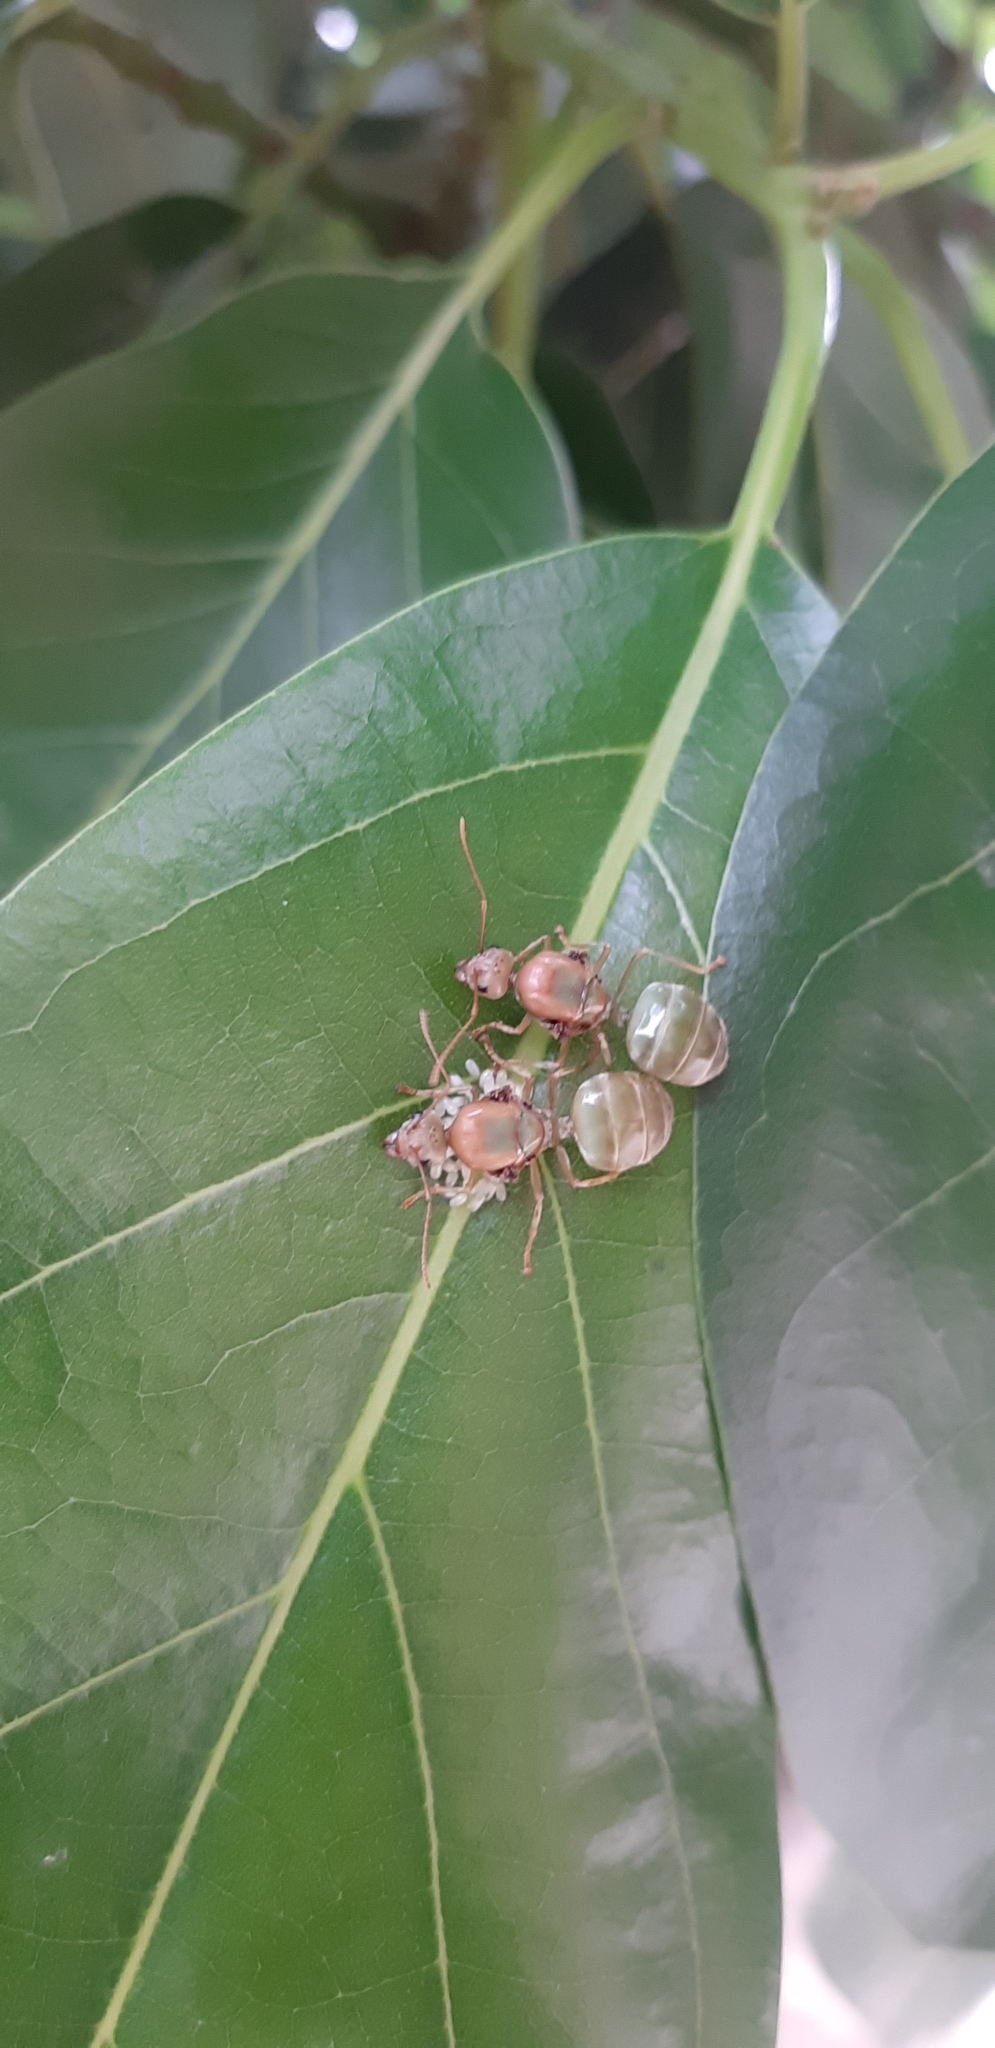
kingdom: Animalia
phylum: Arthropoda
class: Insecta
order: Hymenoptera
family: Formicidae
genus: Oecophylla
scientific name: Oecophylla smaragdina
